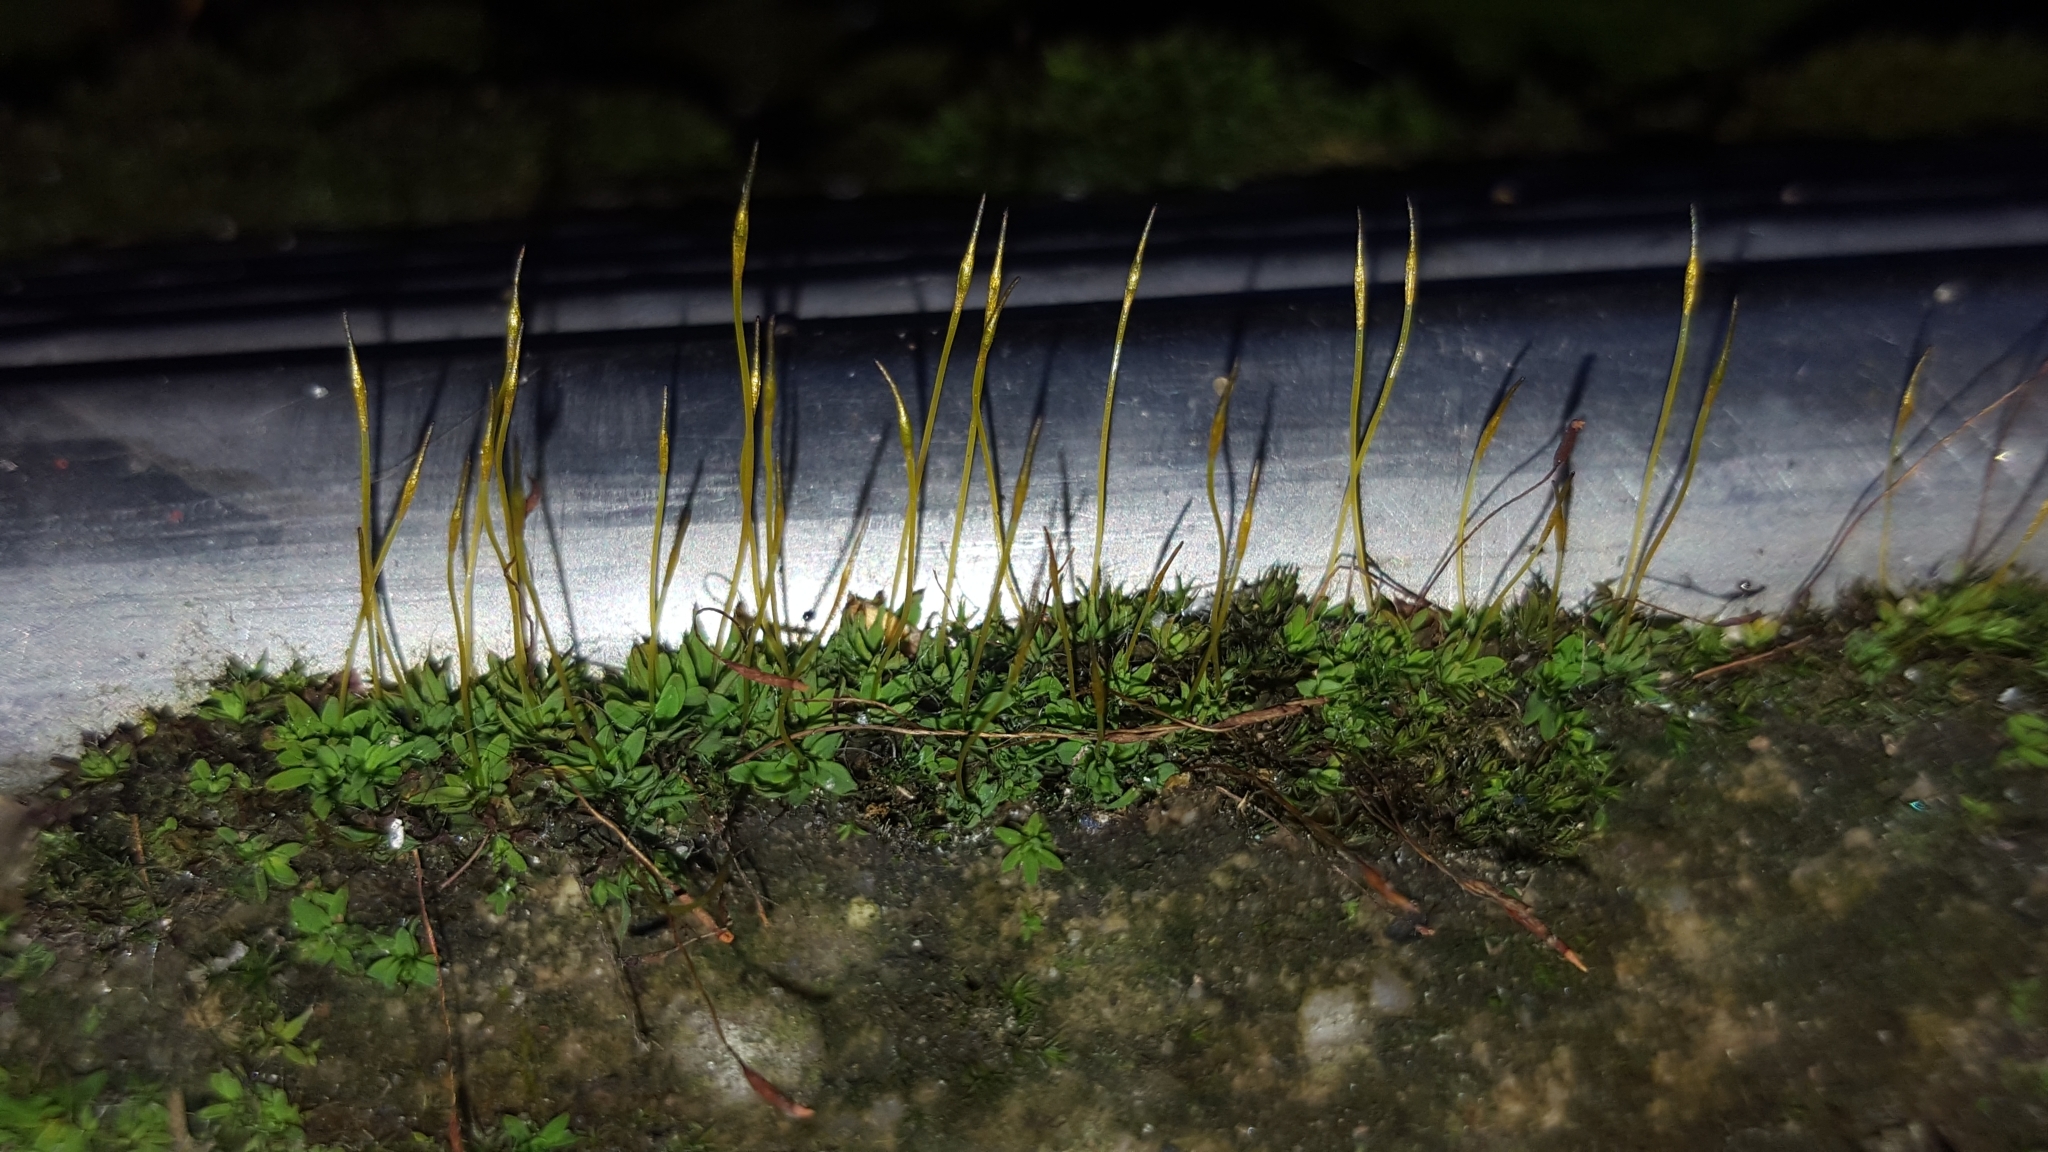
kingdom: Plantae
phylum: Bryophyta
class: Bryopsida
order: Pottiales
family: Pottiaceae
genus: Tortula
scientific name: Tortula muralis
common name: Wall screw-moss
